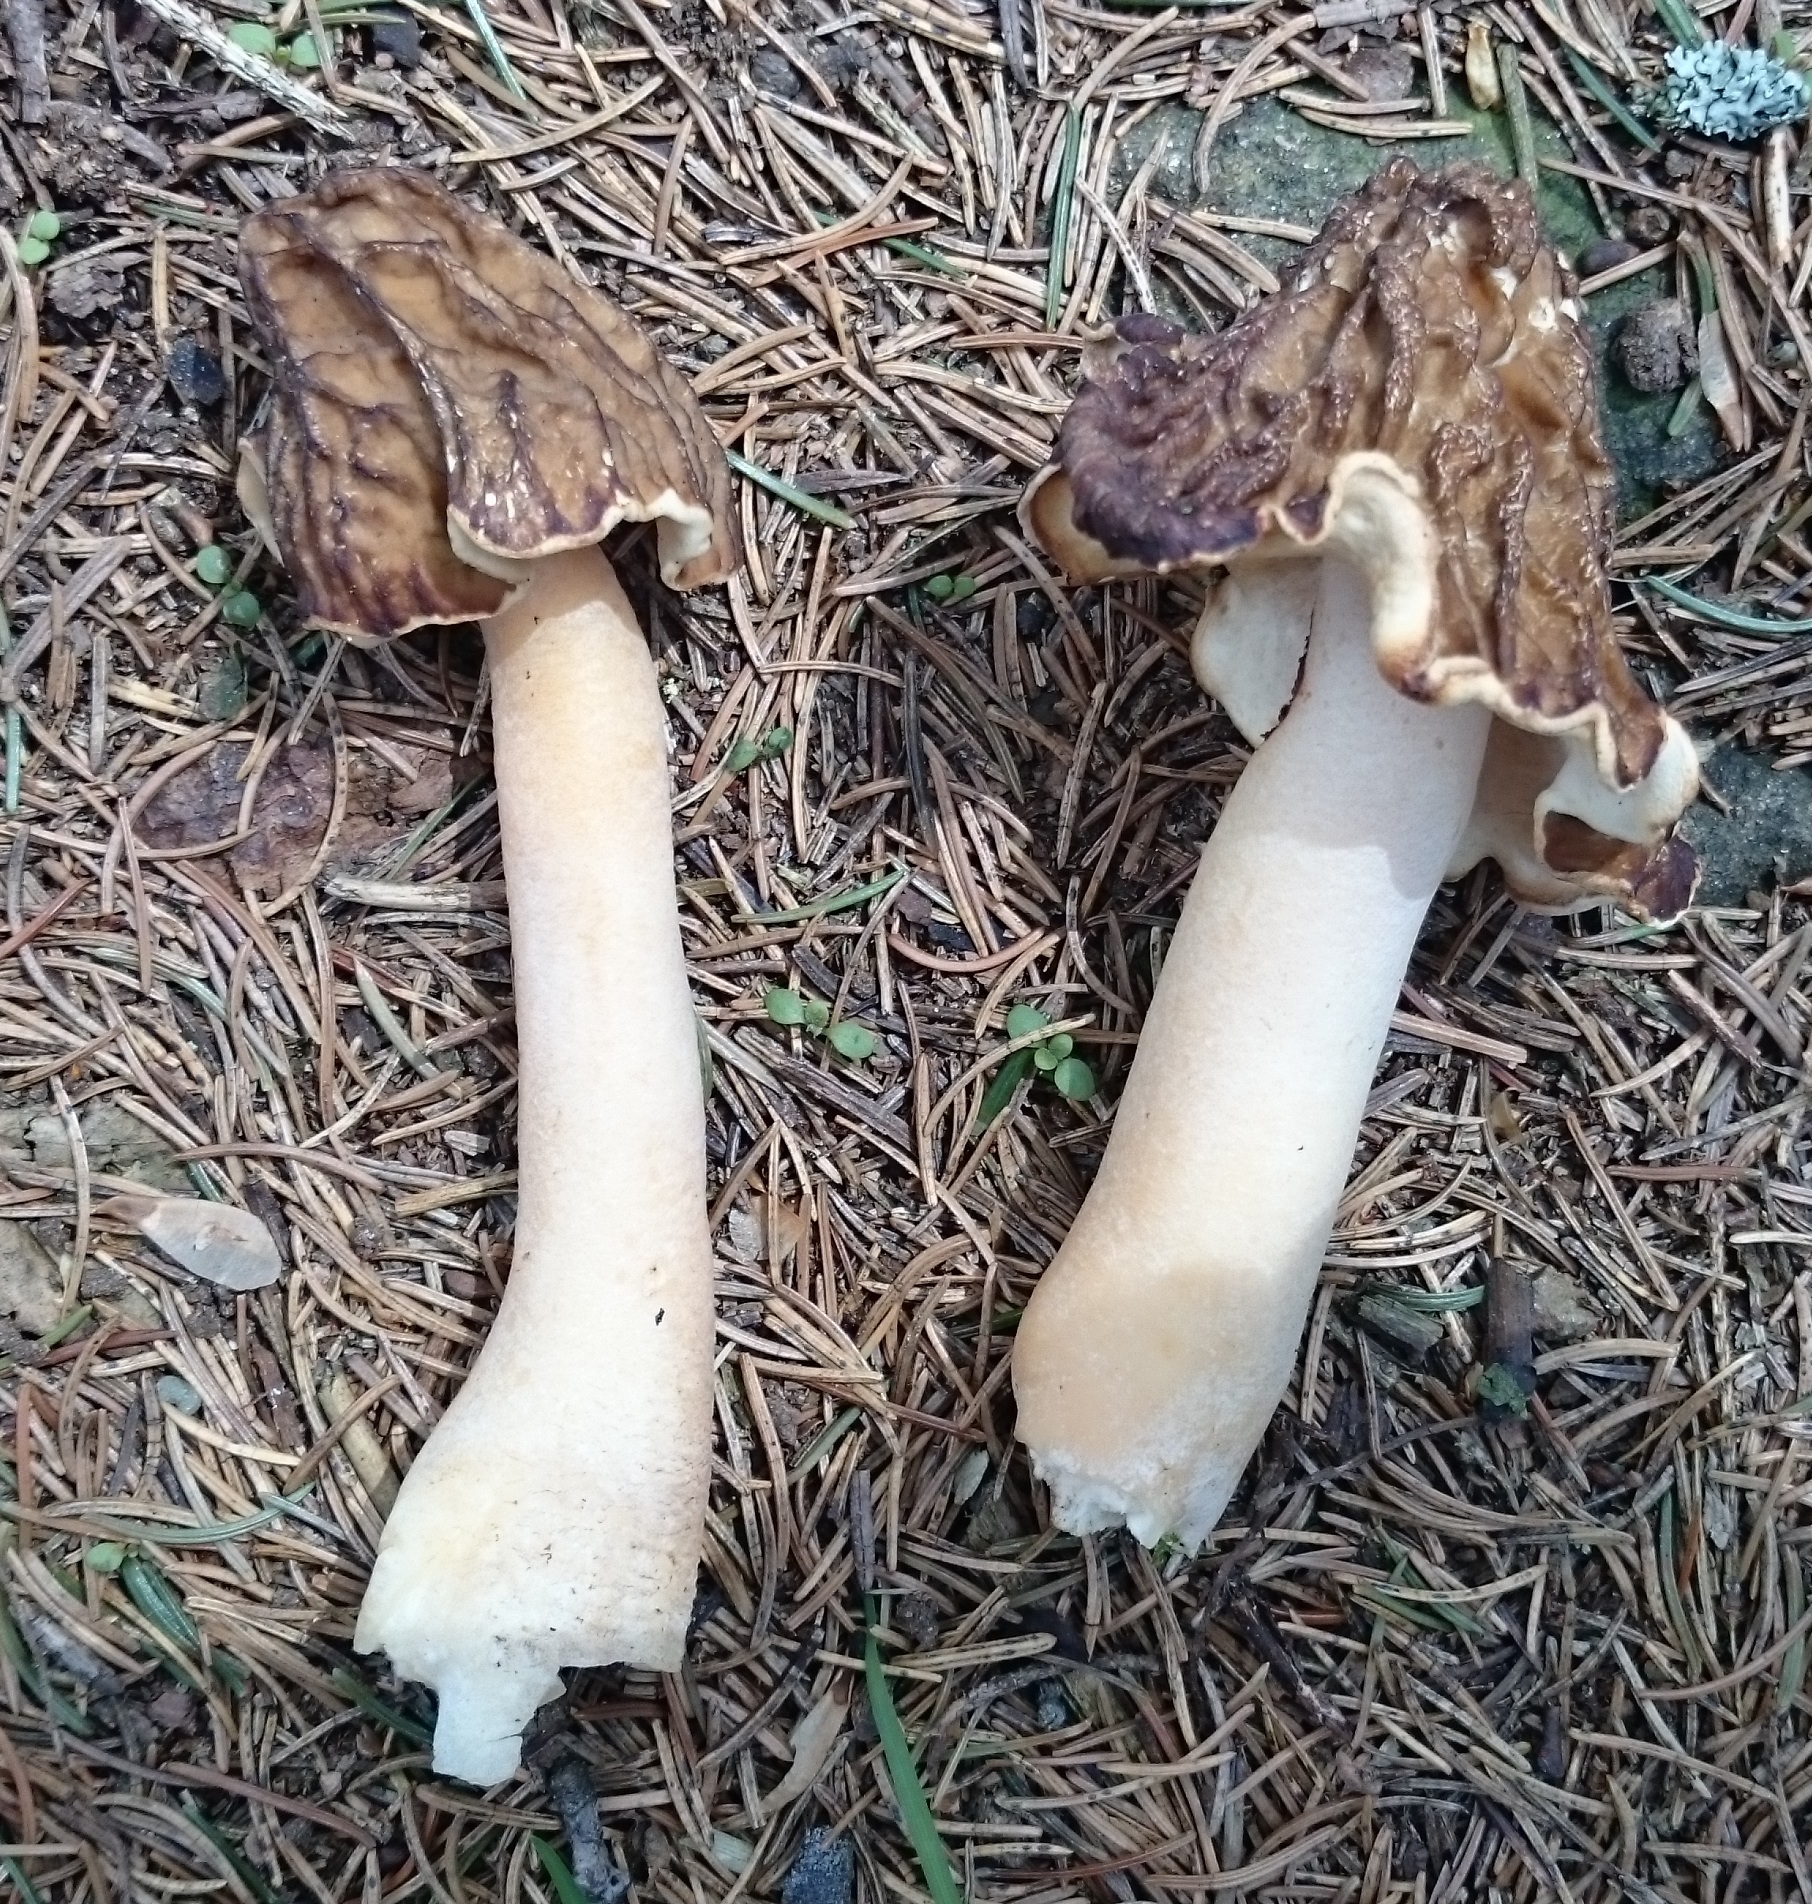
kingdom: Fungi
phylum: Ascomycota
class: Pezizomycetes
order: Pezizales
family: Morchellaceae
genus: Verpa
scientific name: Verpa bohemica
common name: Wrinkled thimble morel
